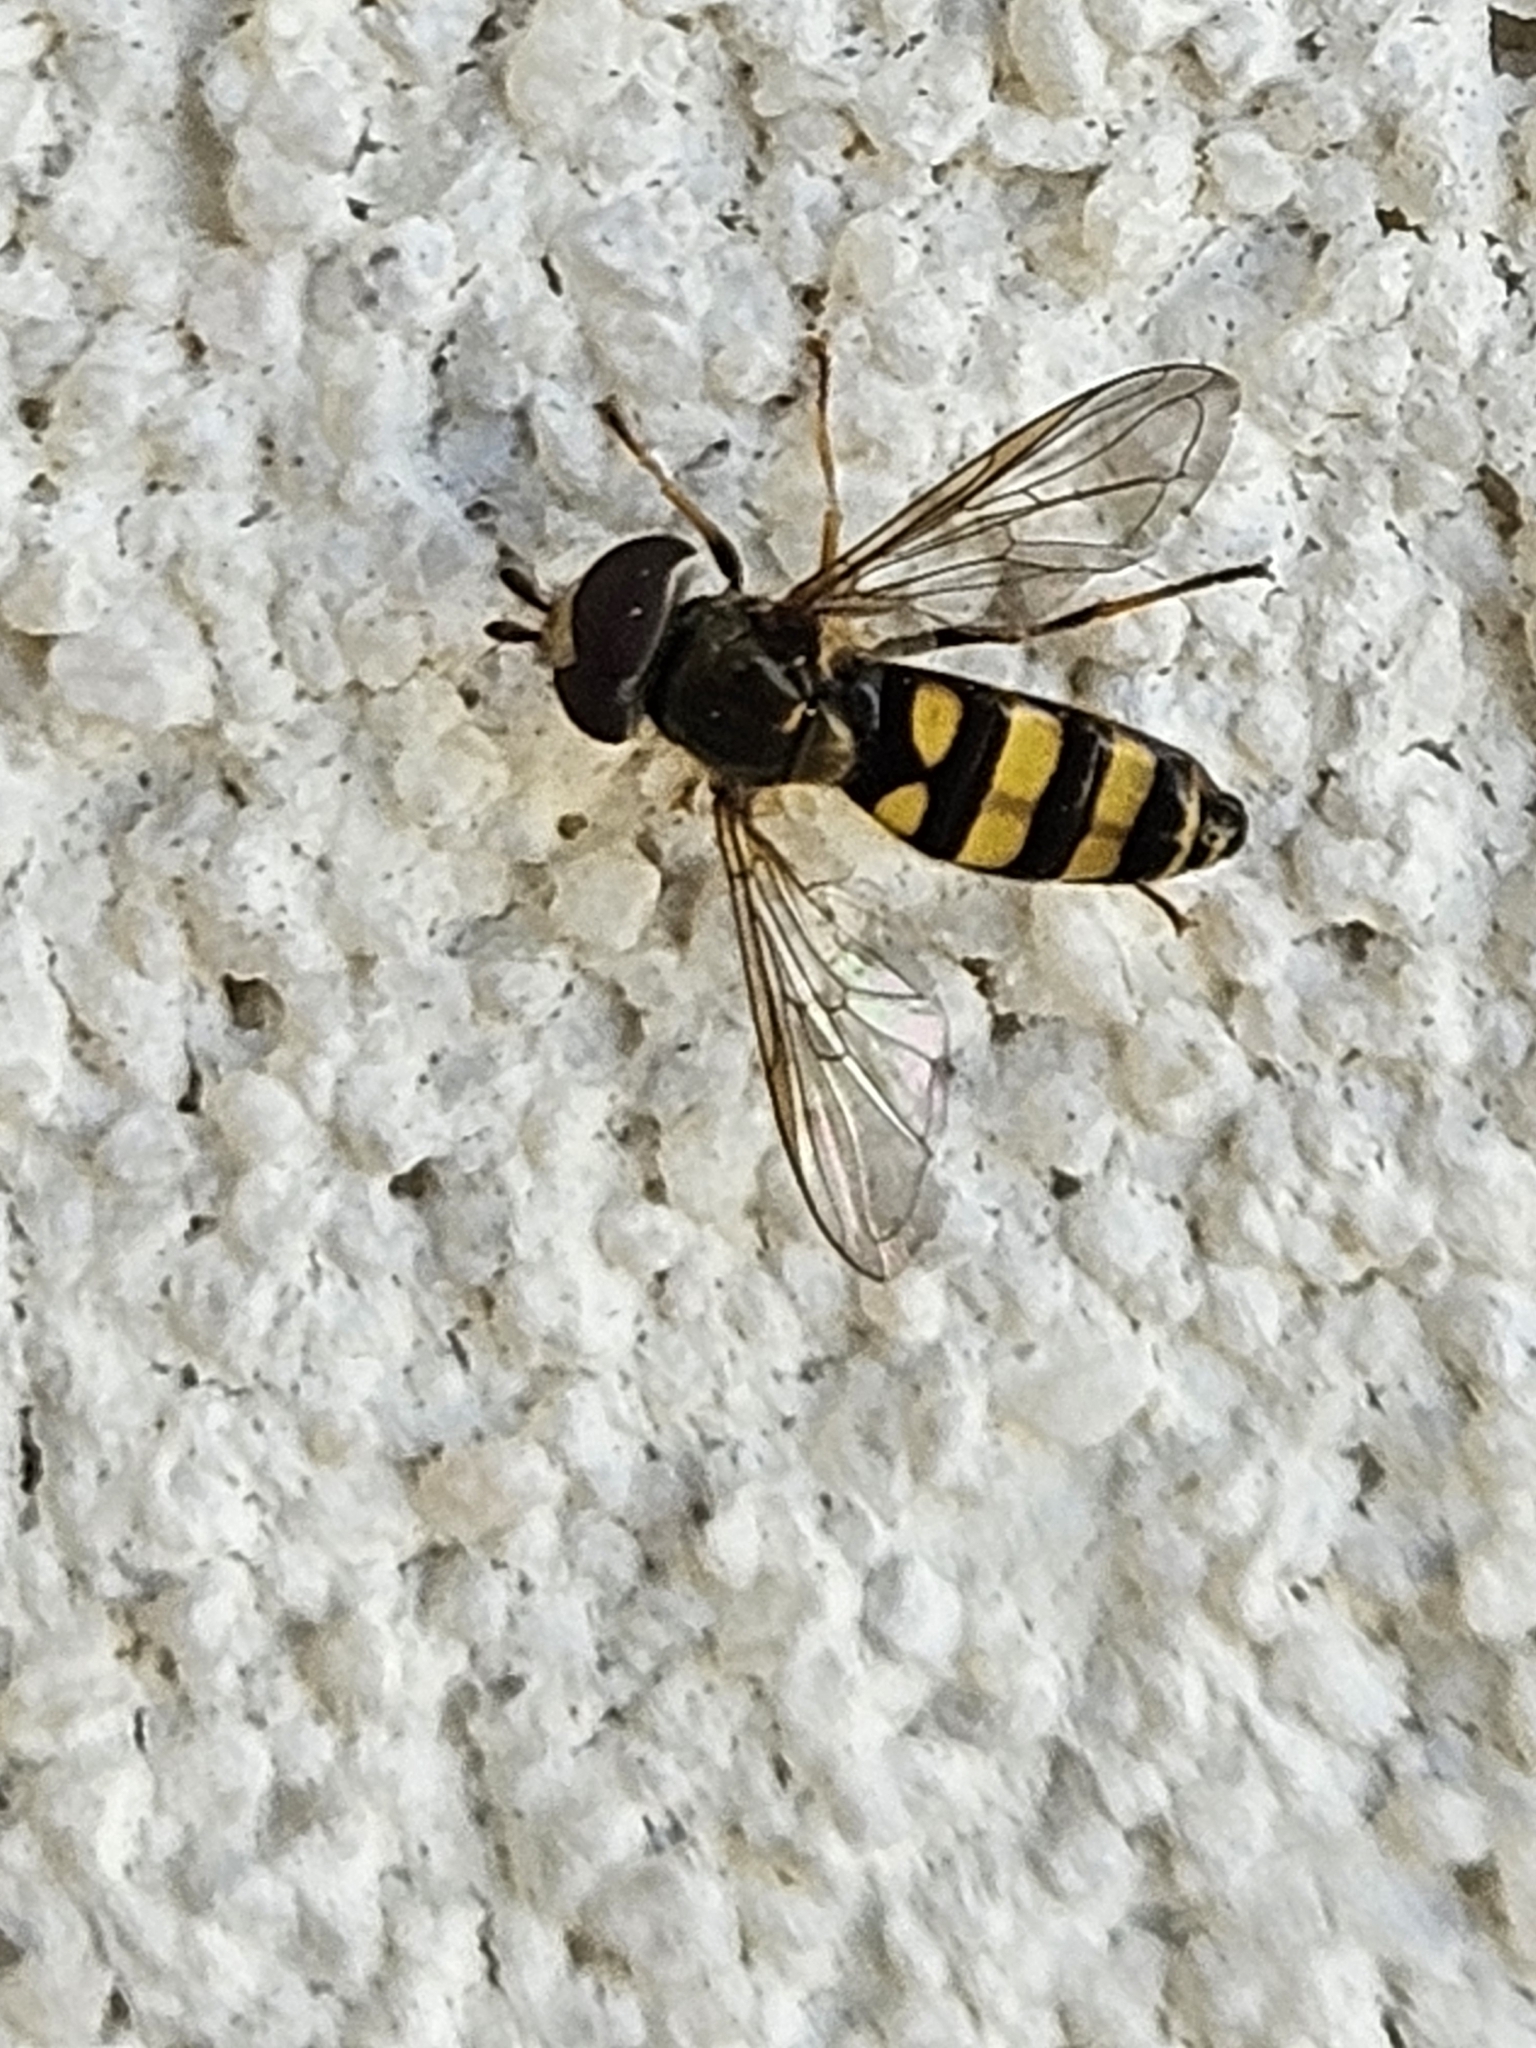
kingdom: Animalia
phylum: Arthropoda
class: Insecta
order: Diptera
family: Syrphidae
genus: Eupeodes
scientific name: Eupeodes
